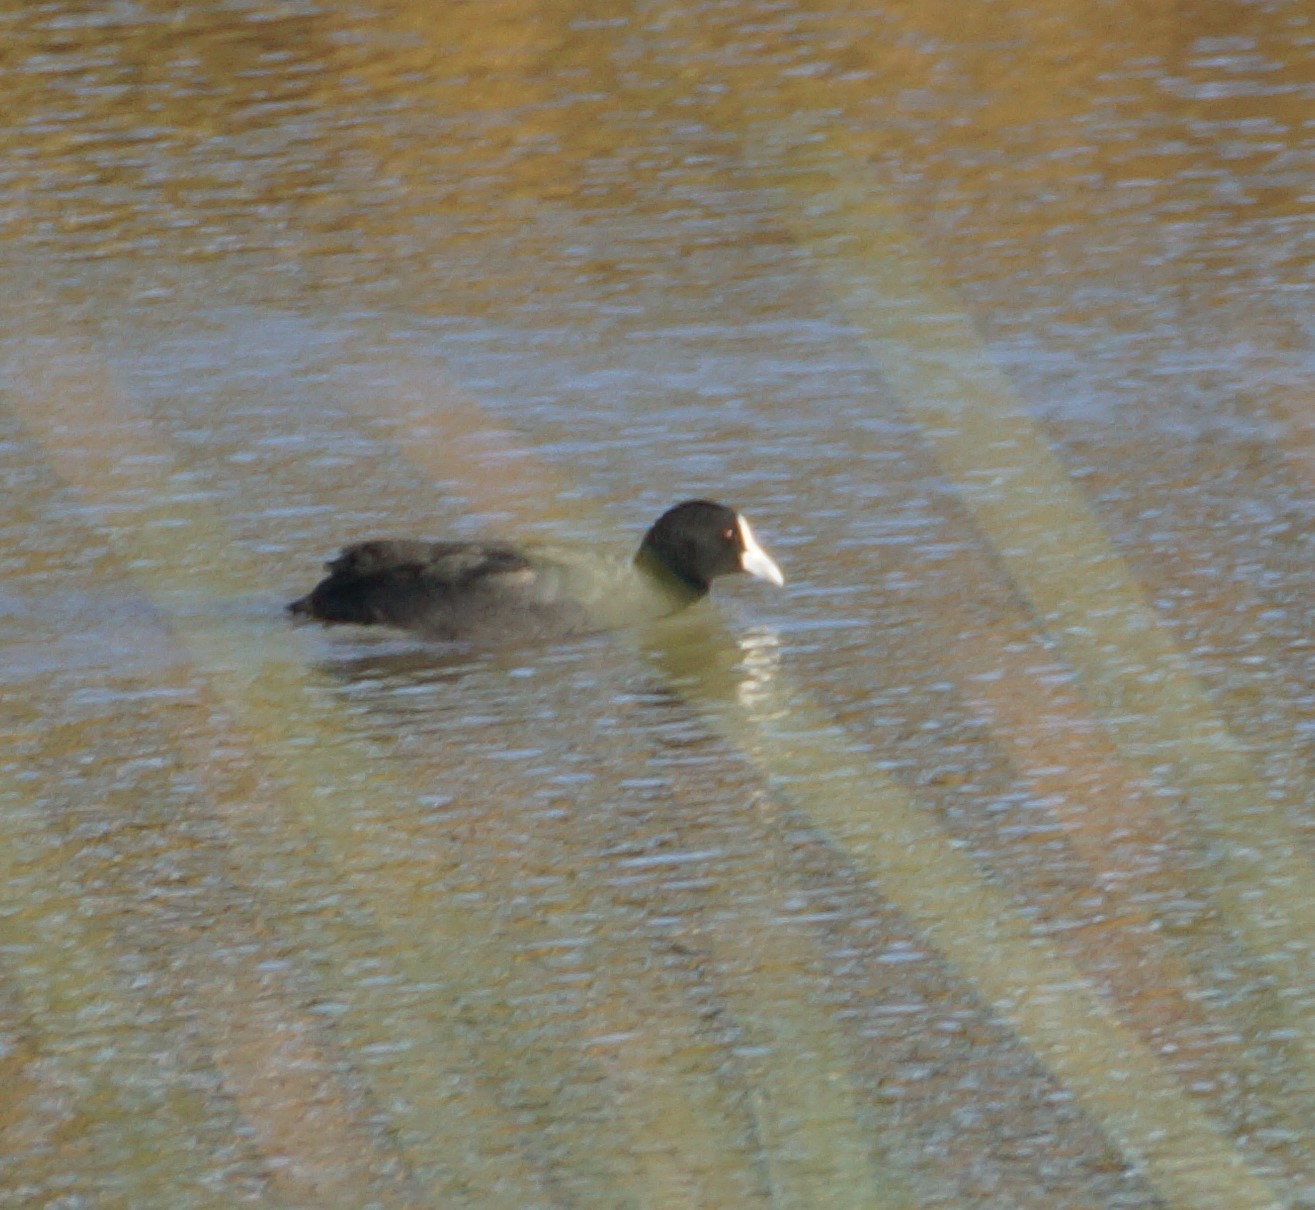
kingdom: Animalia
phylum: Chordata
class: Aves
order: Gruiformes
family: Rallidae
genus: Fulica
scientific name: Fulica atra
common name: Eurasian coot
